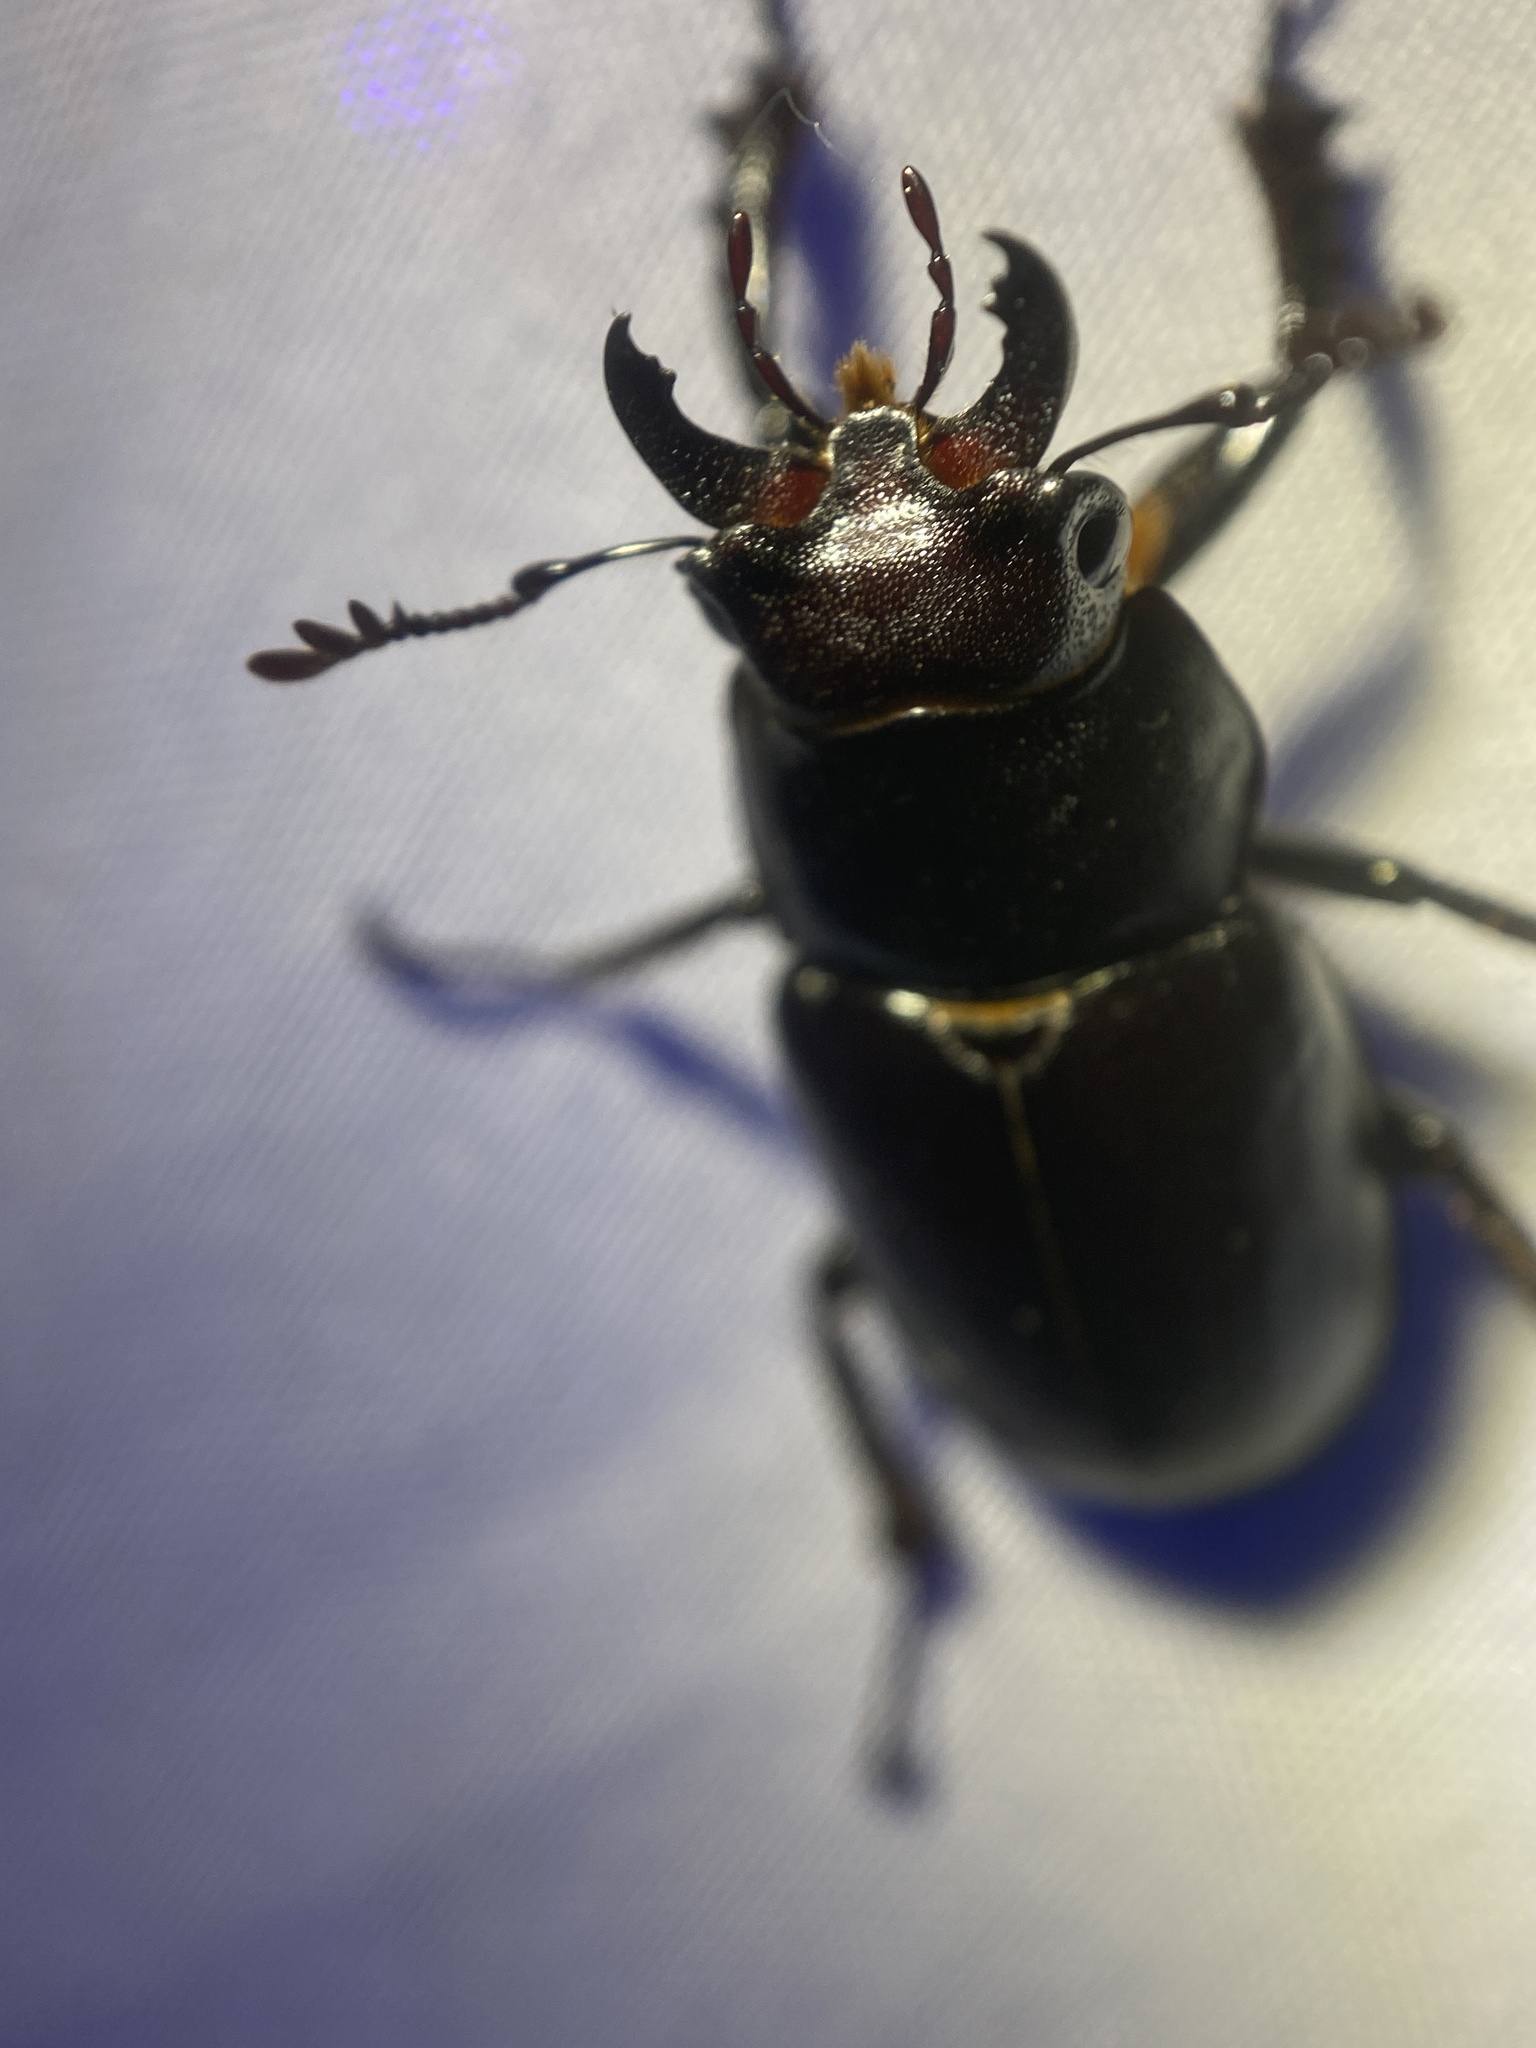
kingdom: Animalia
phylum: Arthropoda
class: Insecta
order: Coleoptera
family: Lucanidae
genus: Lucanus
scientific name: Lucanus placidus
